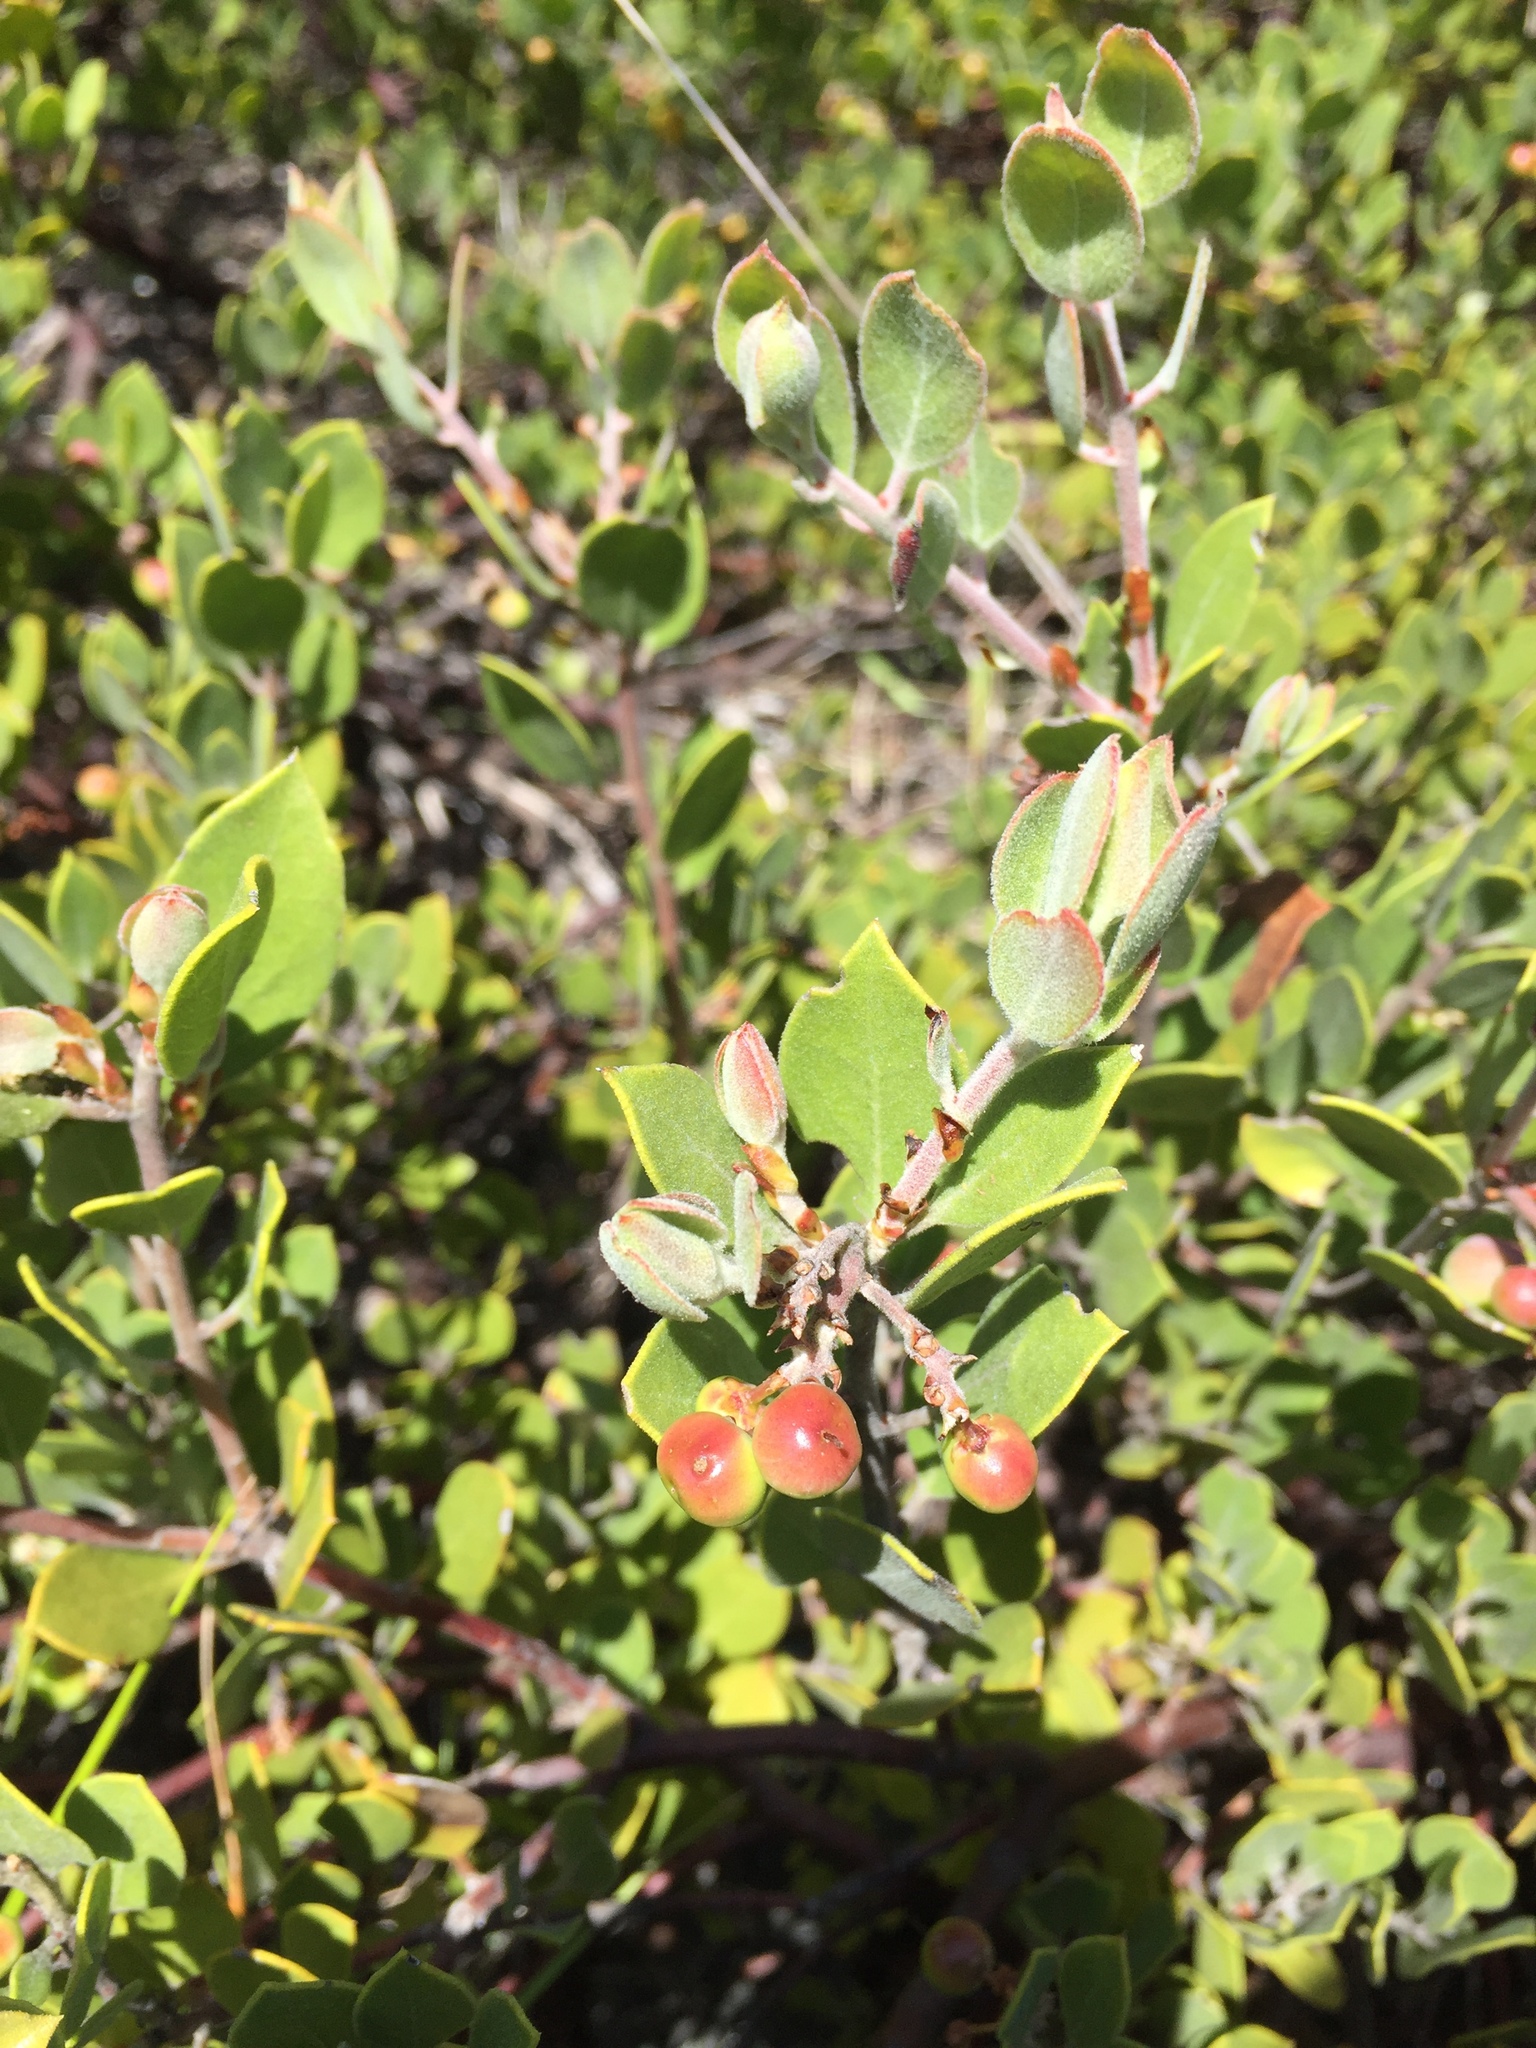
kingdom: Plantae
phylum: Tracheophyta
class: Magnoliopsida
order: Ericales
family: Ericaceae
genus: Arctostaphylos
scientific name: Arctostaphylos montana
